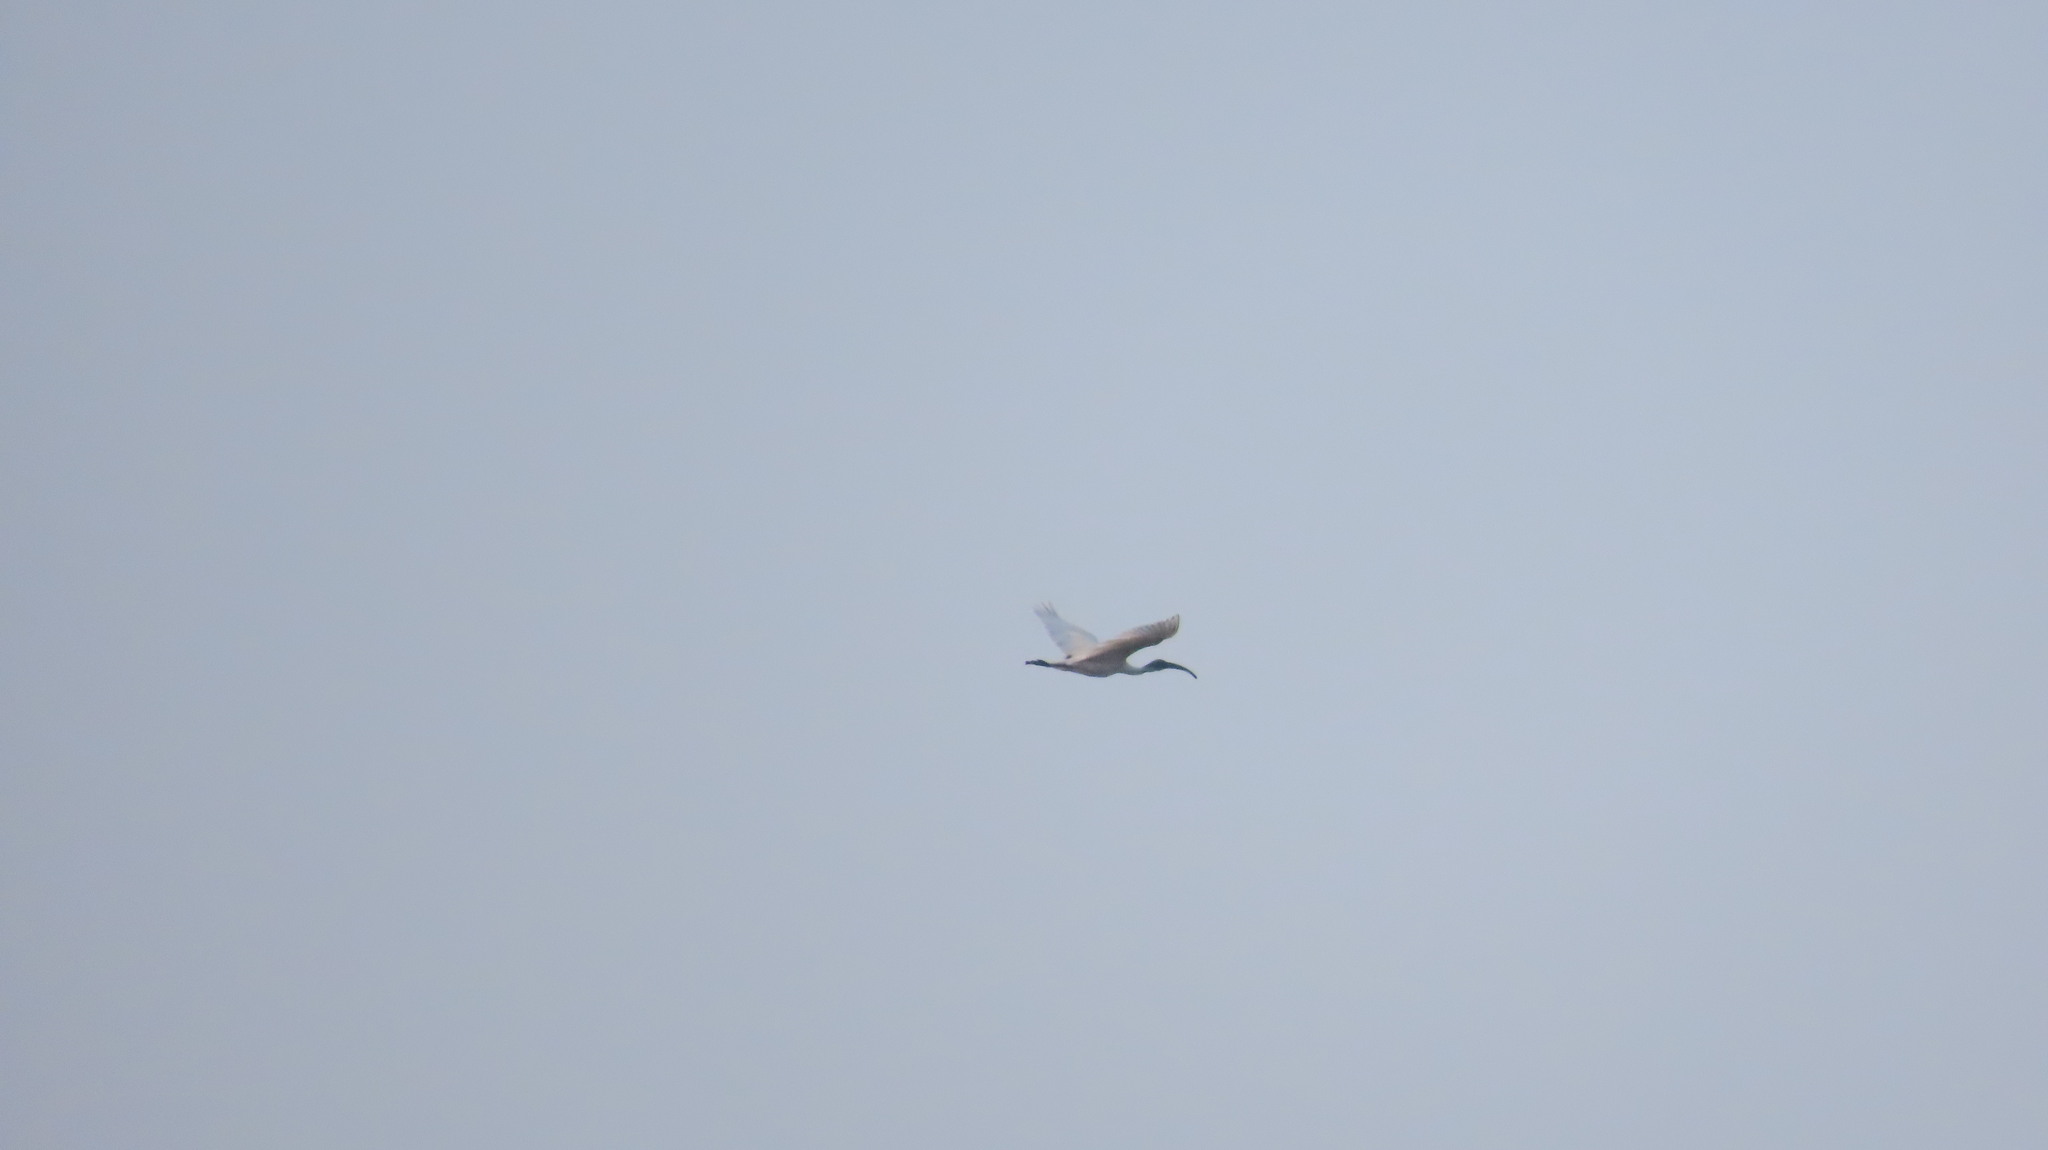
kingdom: Animalia
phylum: Chordata
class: Aves
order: Pelecaniformes
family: Threskiornithidae
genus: Threskiornis
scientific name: Threskiornis melanocephalus
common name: Black-headed ibis
